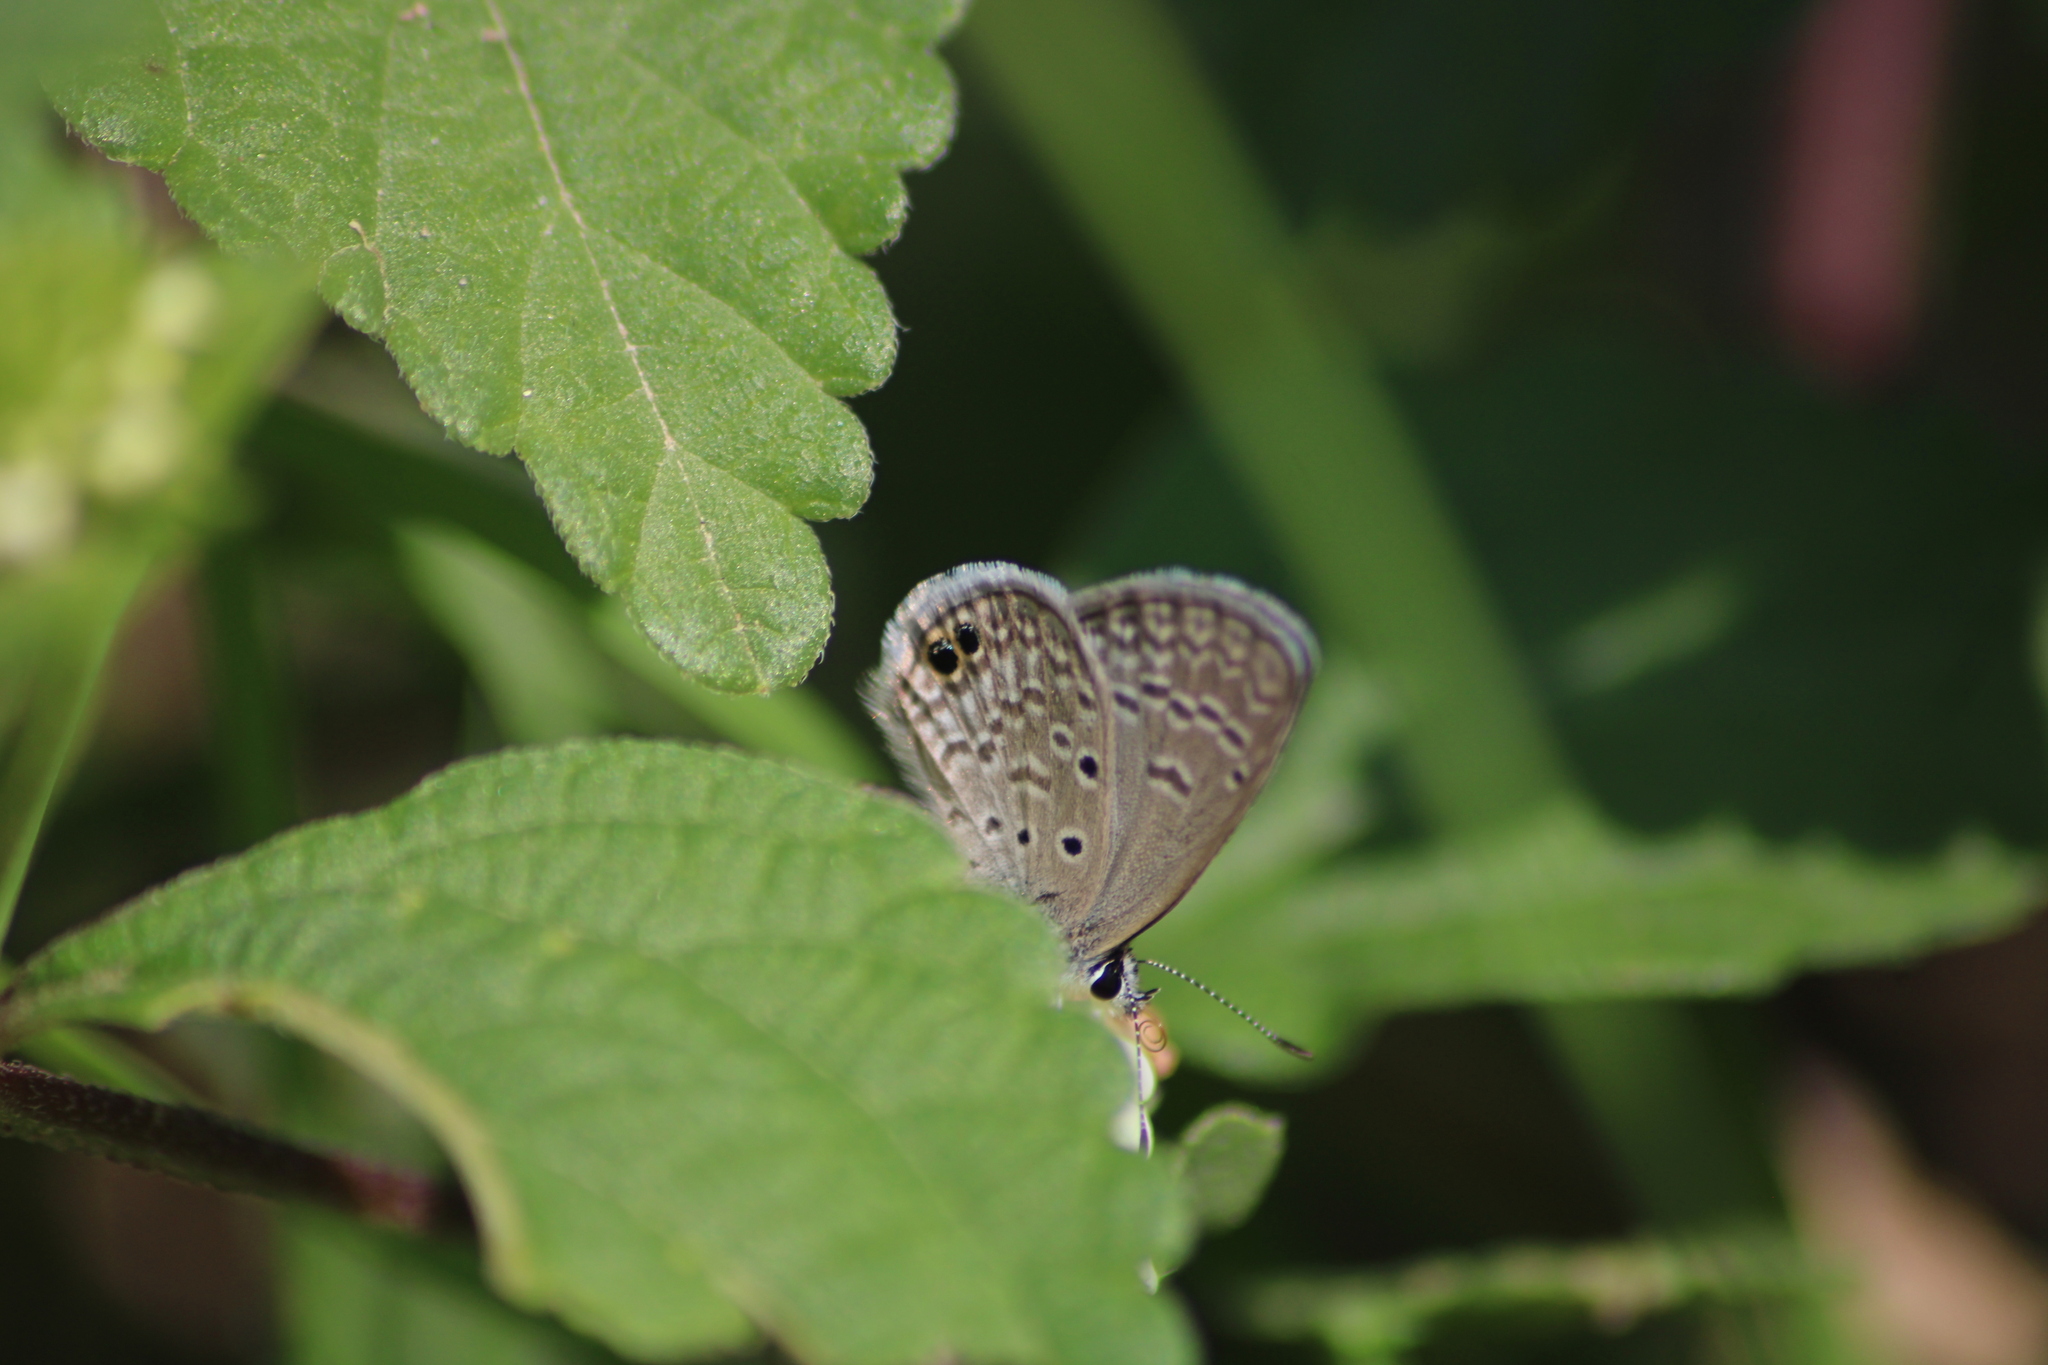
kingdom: Animalia
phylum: Arthropoda
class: Insecta
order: Lepidoptera
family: Lycaenidae
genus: Echinargus
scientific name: Echinargus isola
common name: Reakirt's blue
